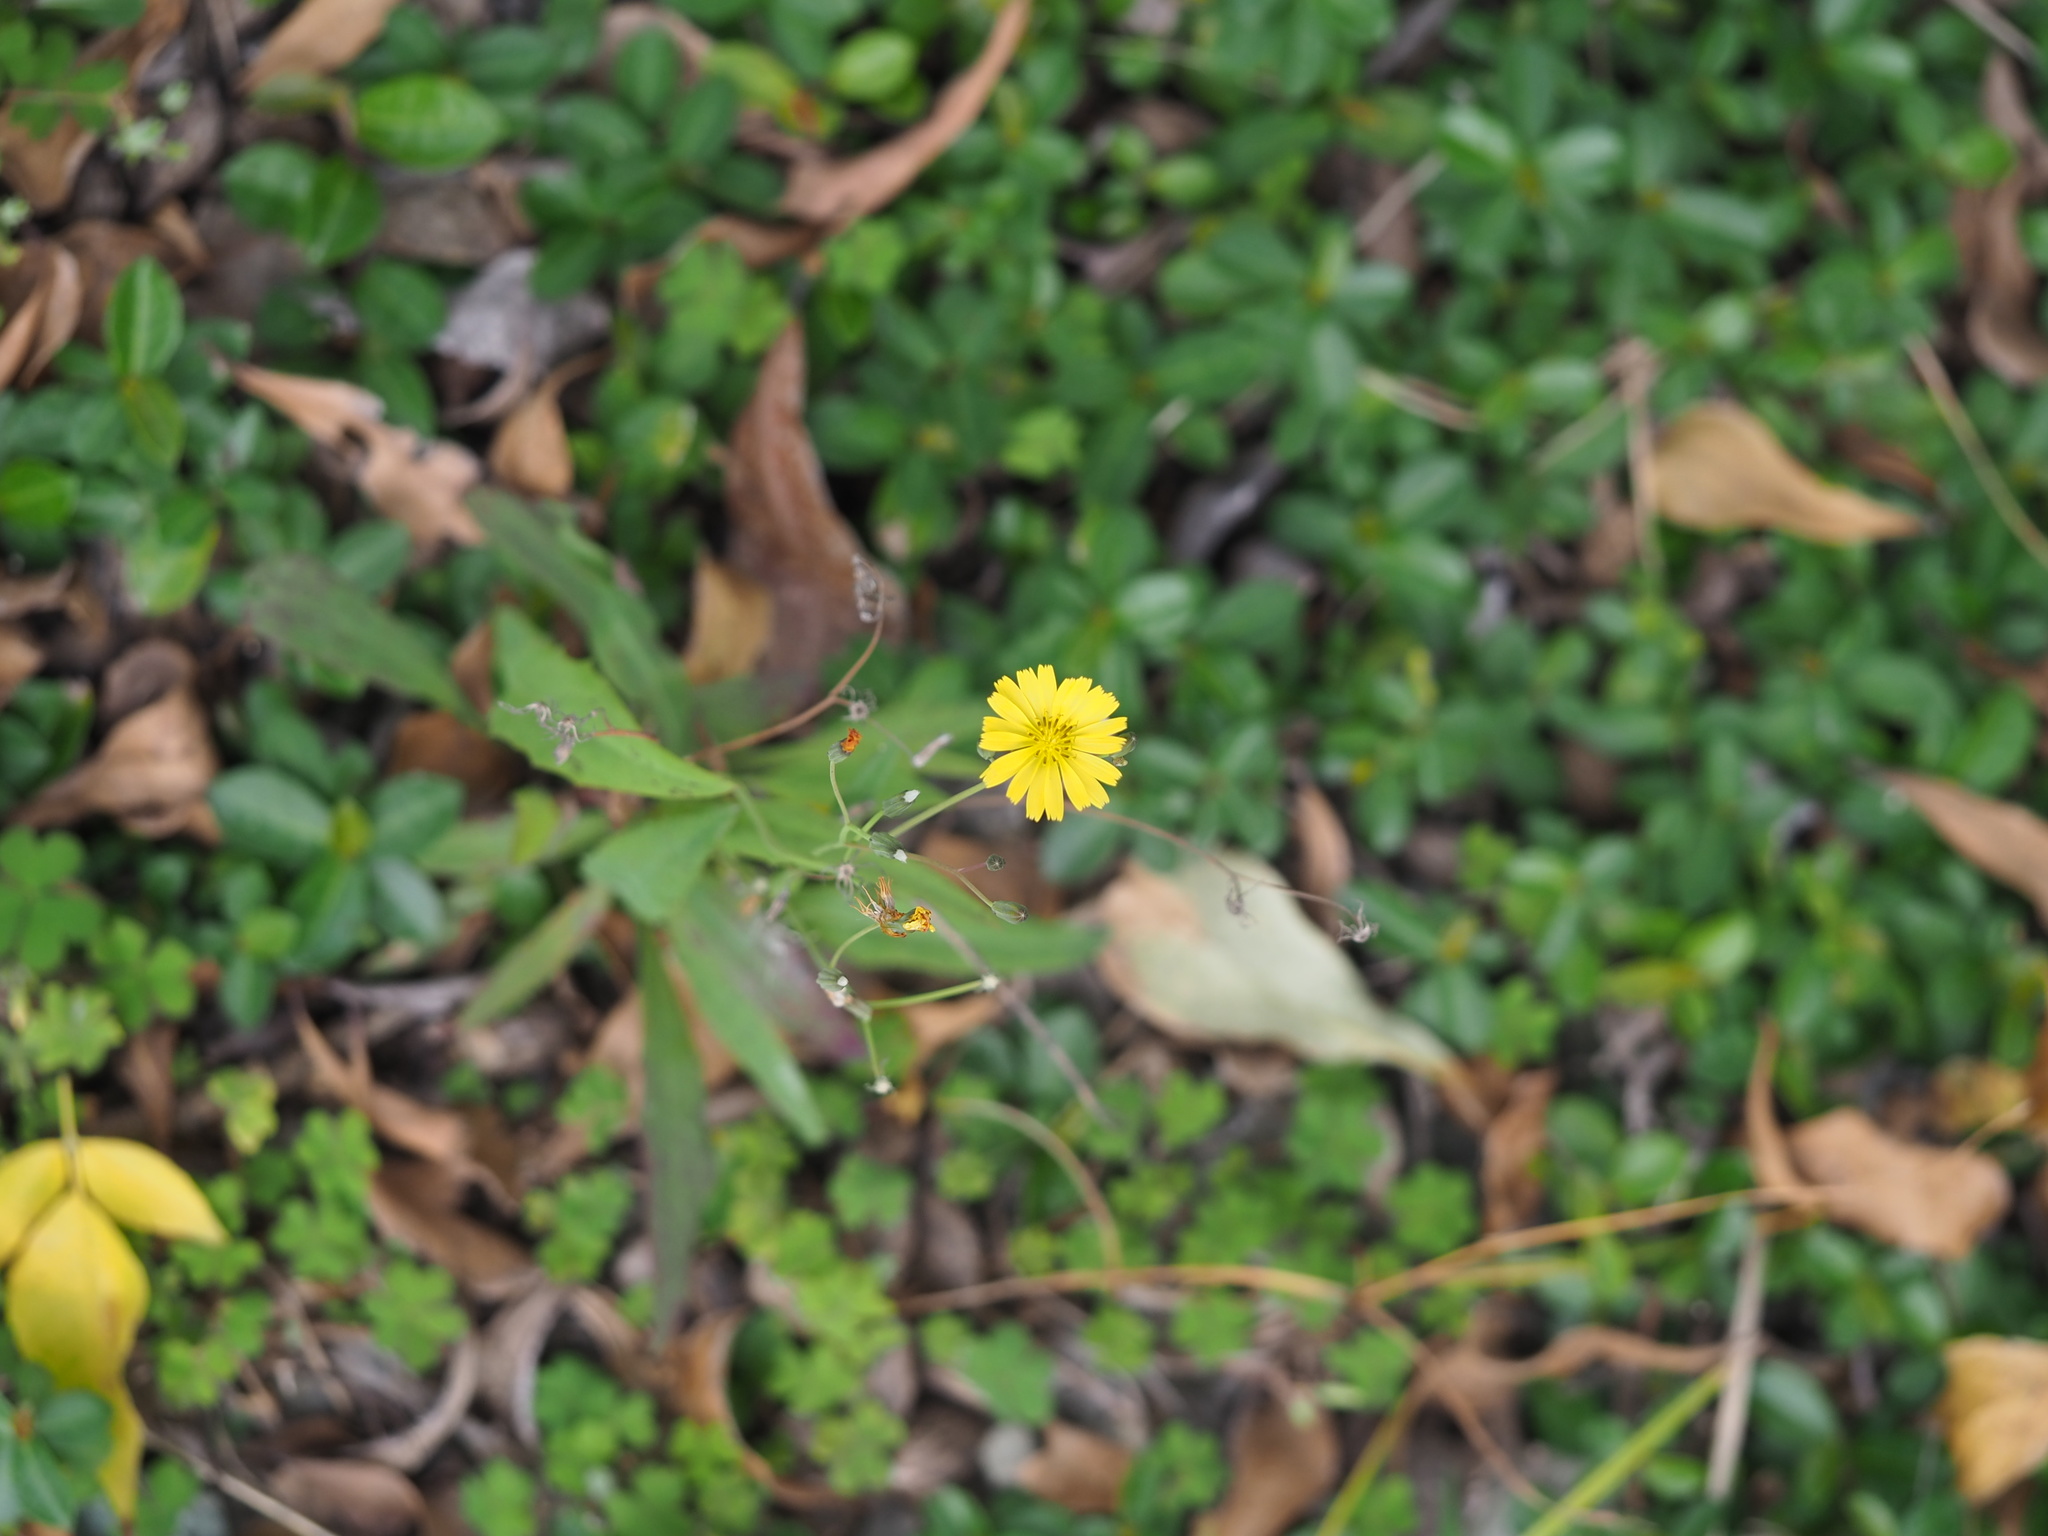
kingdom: Plantae
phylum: Tracheophyta
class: Magnoliopsida
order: Asterales
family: Asteraceae
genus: Ixeris
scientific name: Ixeris chinensis
